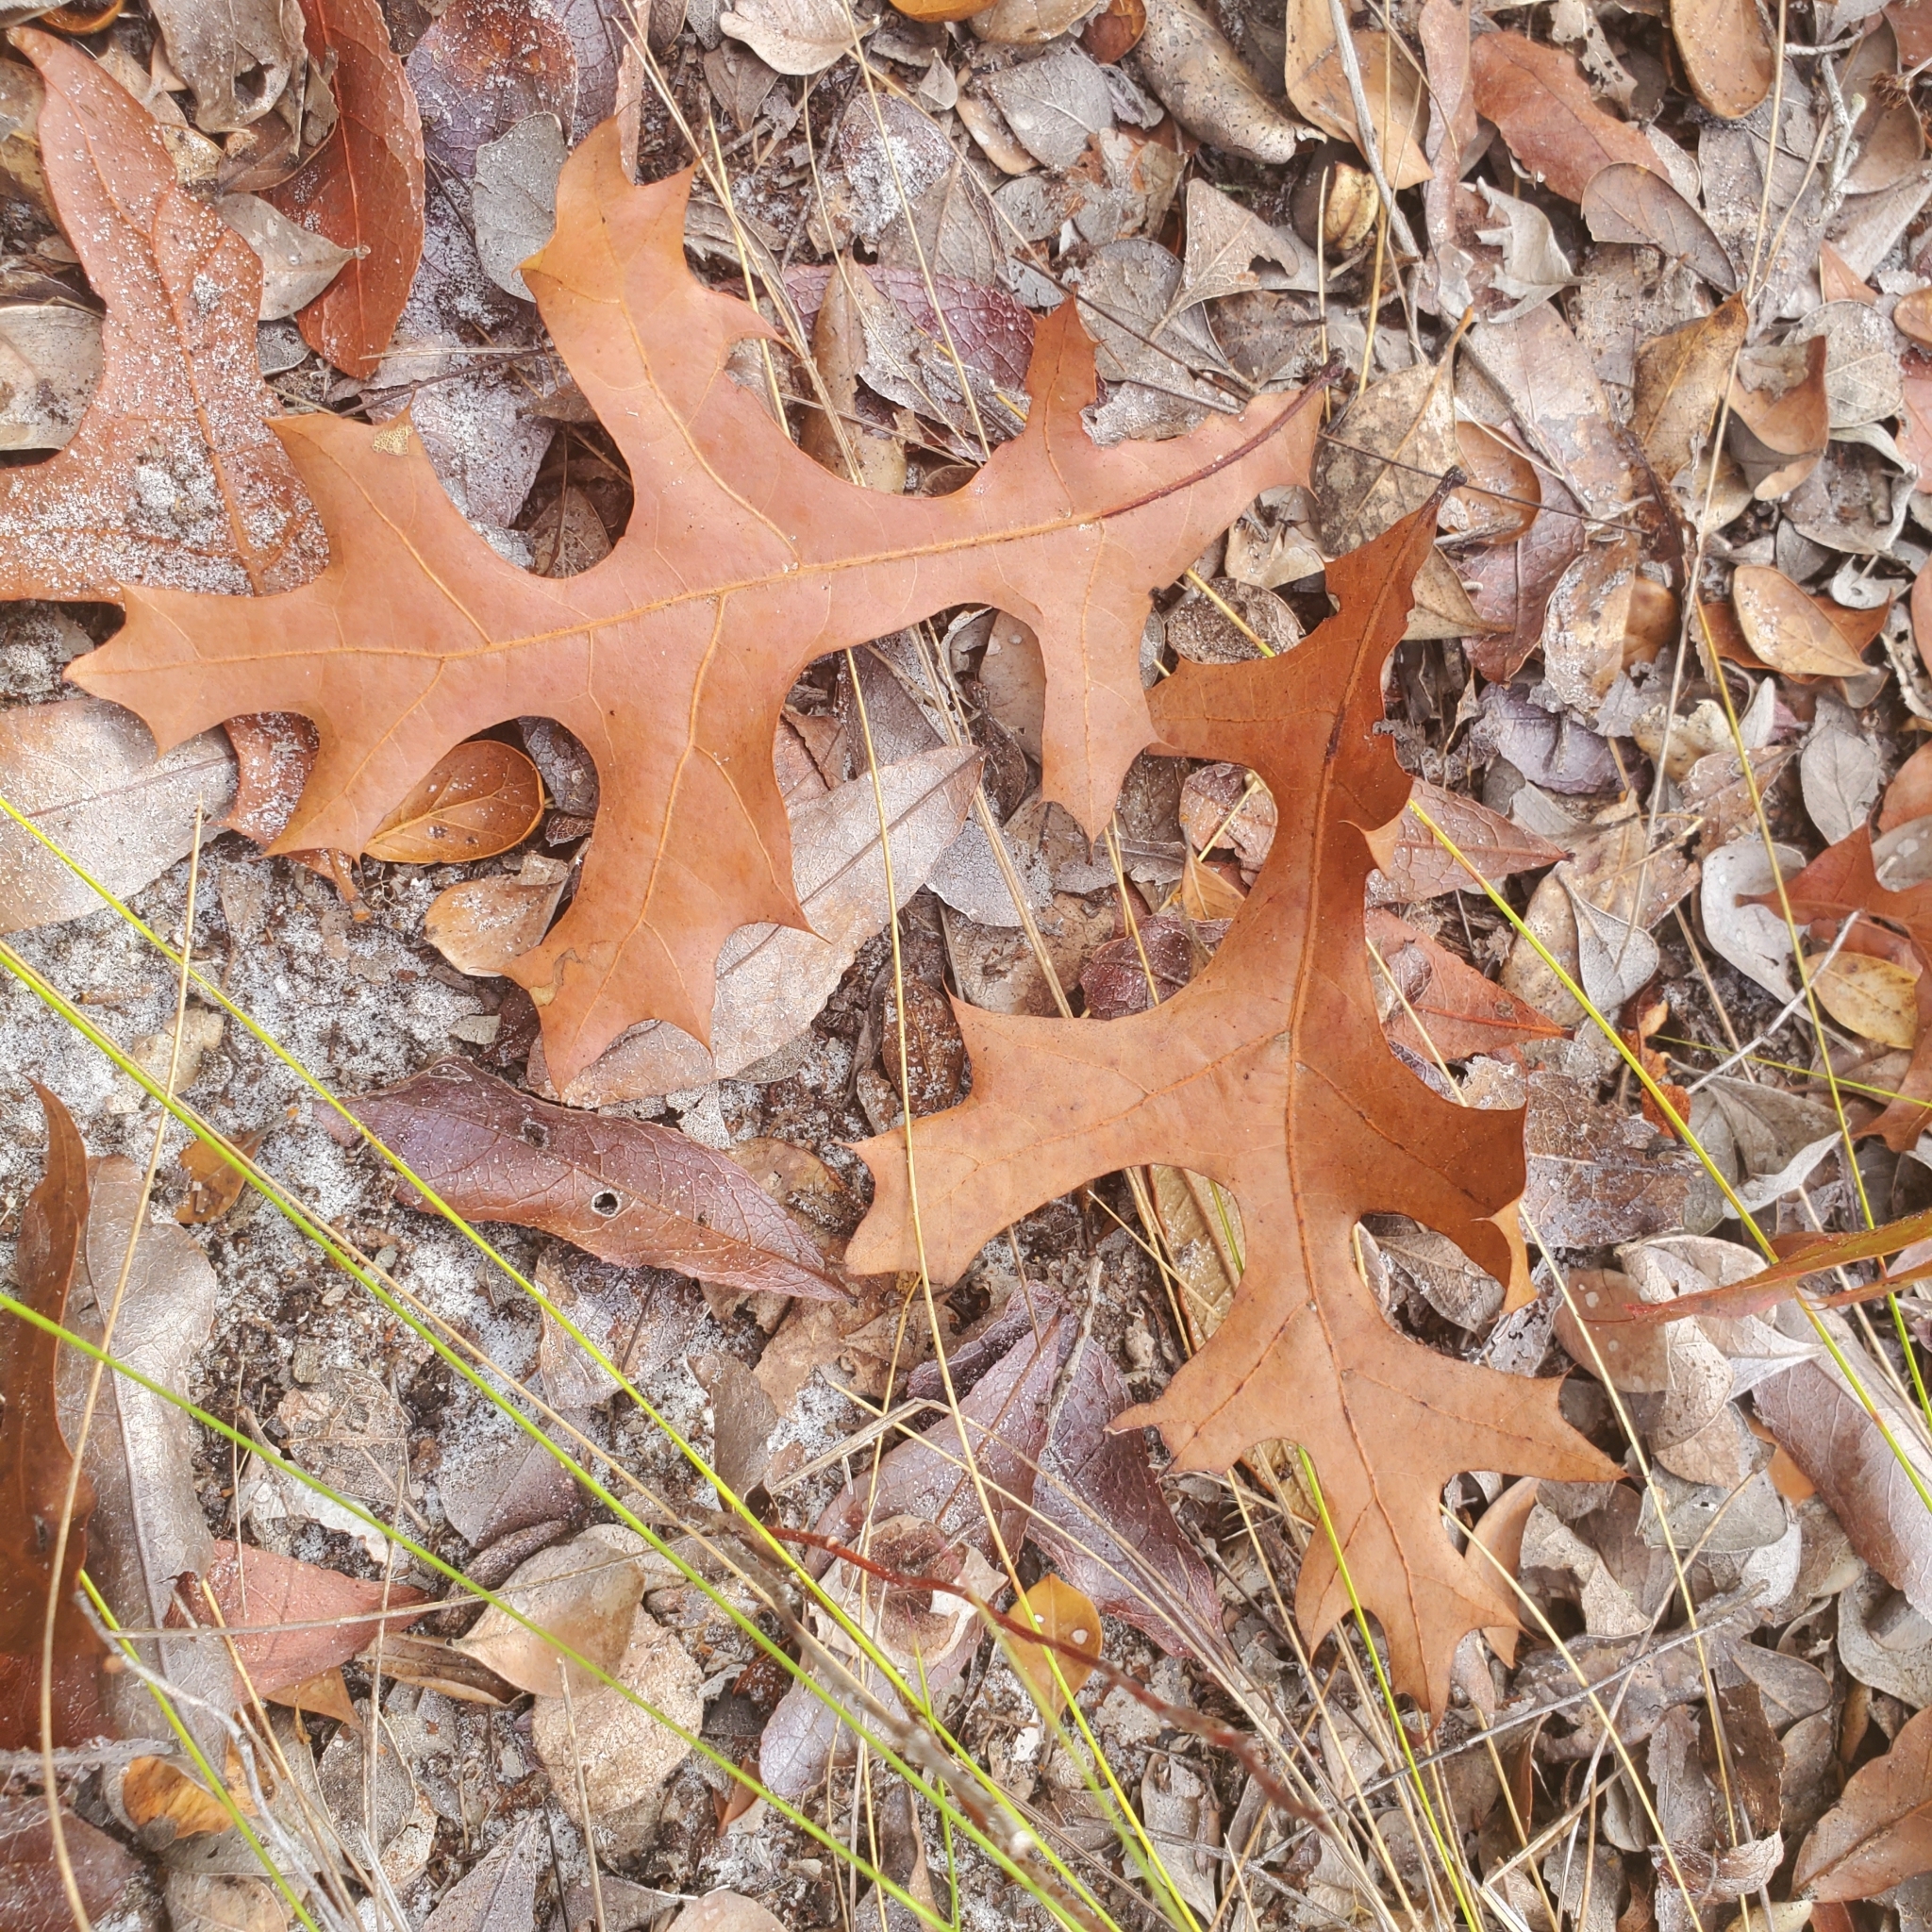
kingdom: Plantae
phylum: Tracheophyta
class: Magnoliopsida
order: Fagales
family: Fagaceae
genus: Quercus
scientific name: Quercus laevis
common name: Turkey oak
